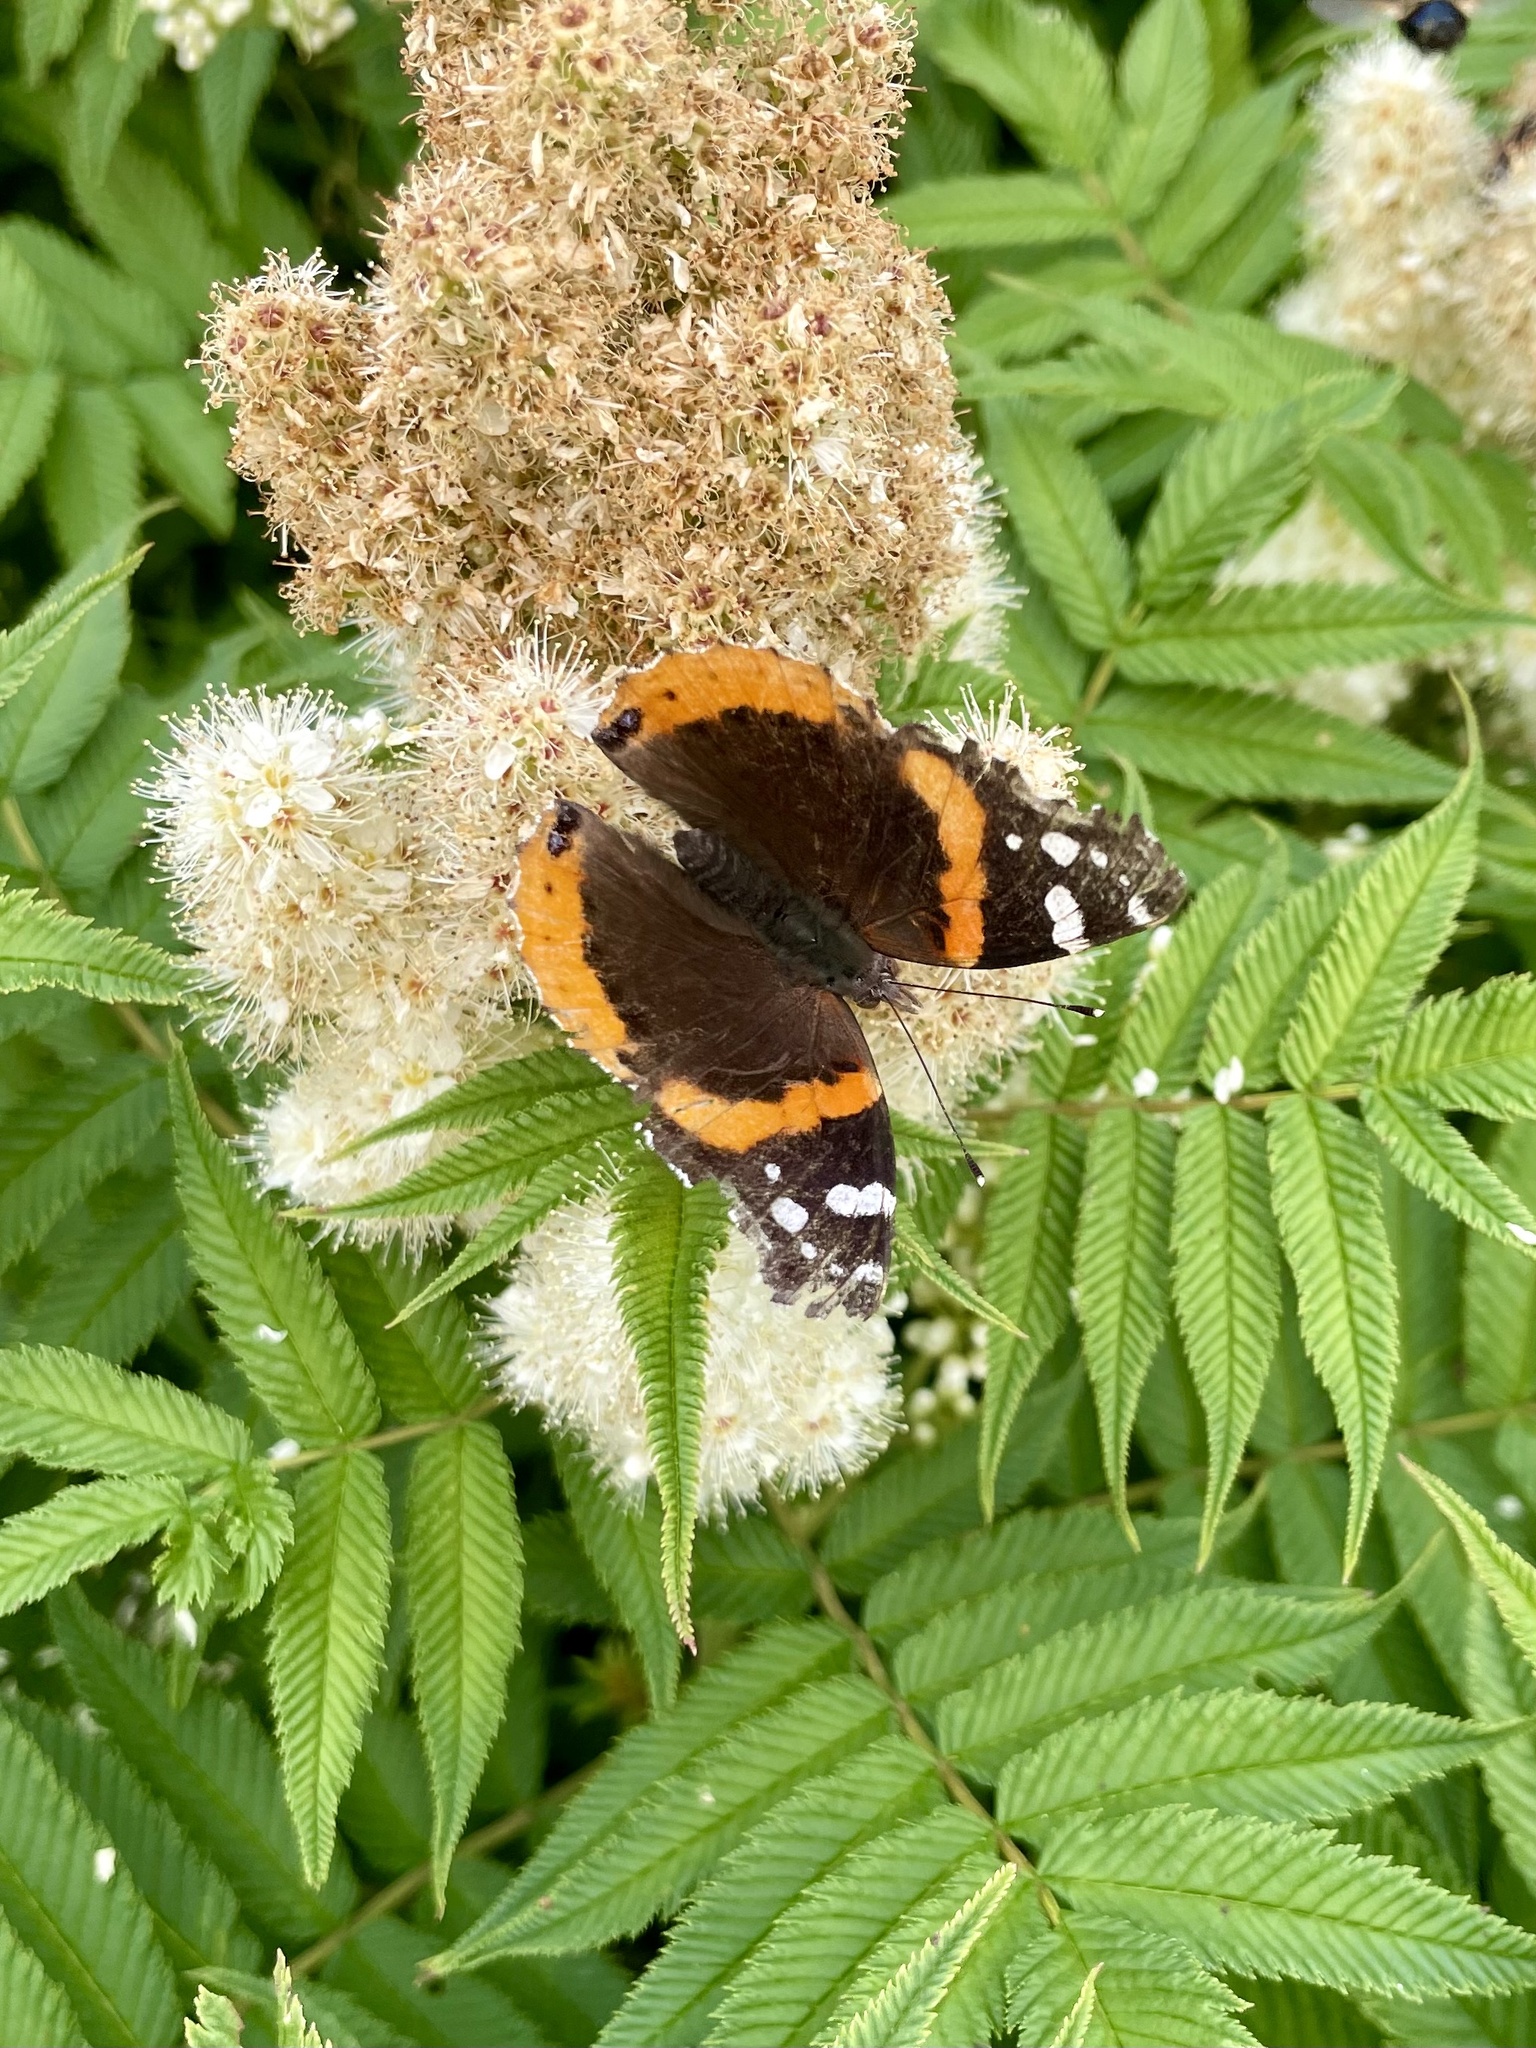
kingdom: Animalia
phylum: Arthropoda
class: Insecta
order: Lepidoptera
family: Nymphalidae
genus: Vanessa
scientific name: Vanessa atalanta
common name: Red admiral
